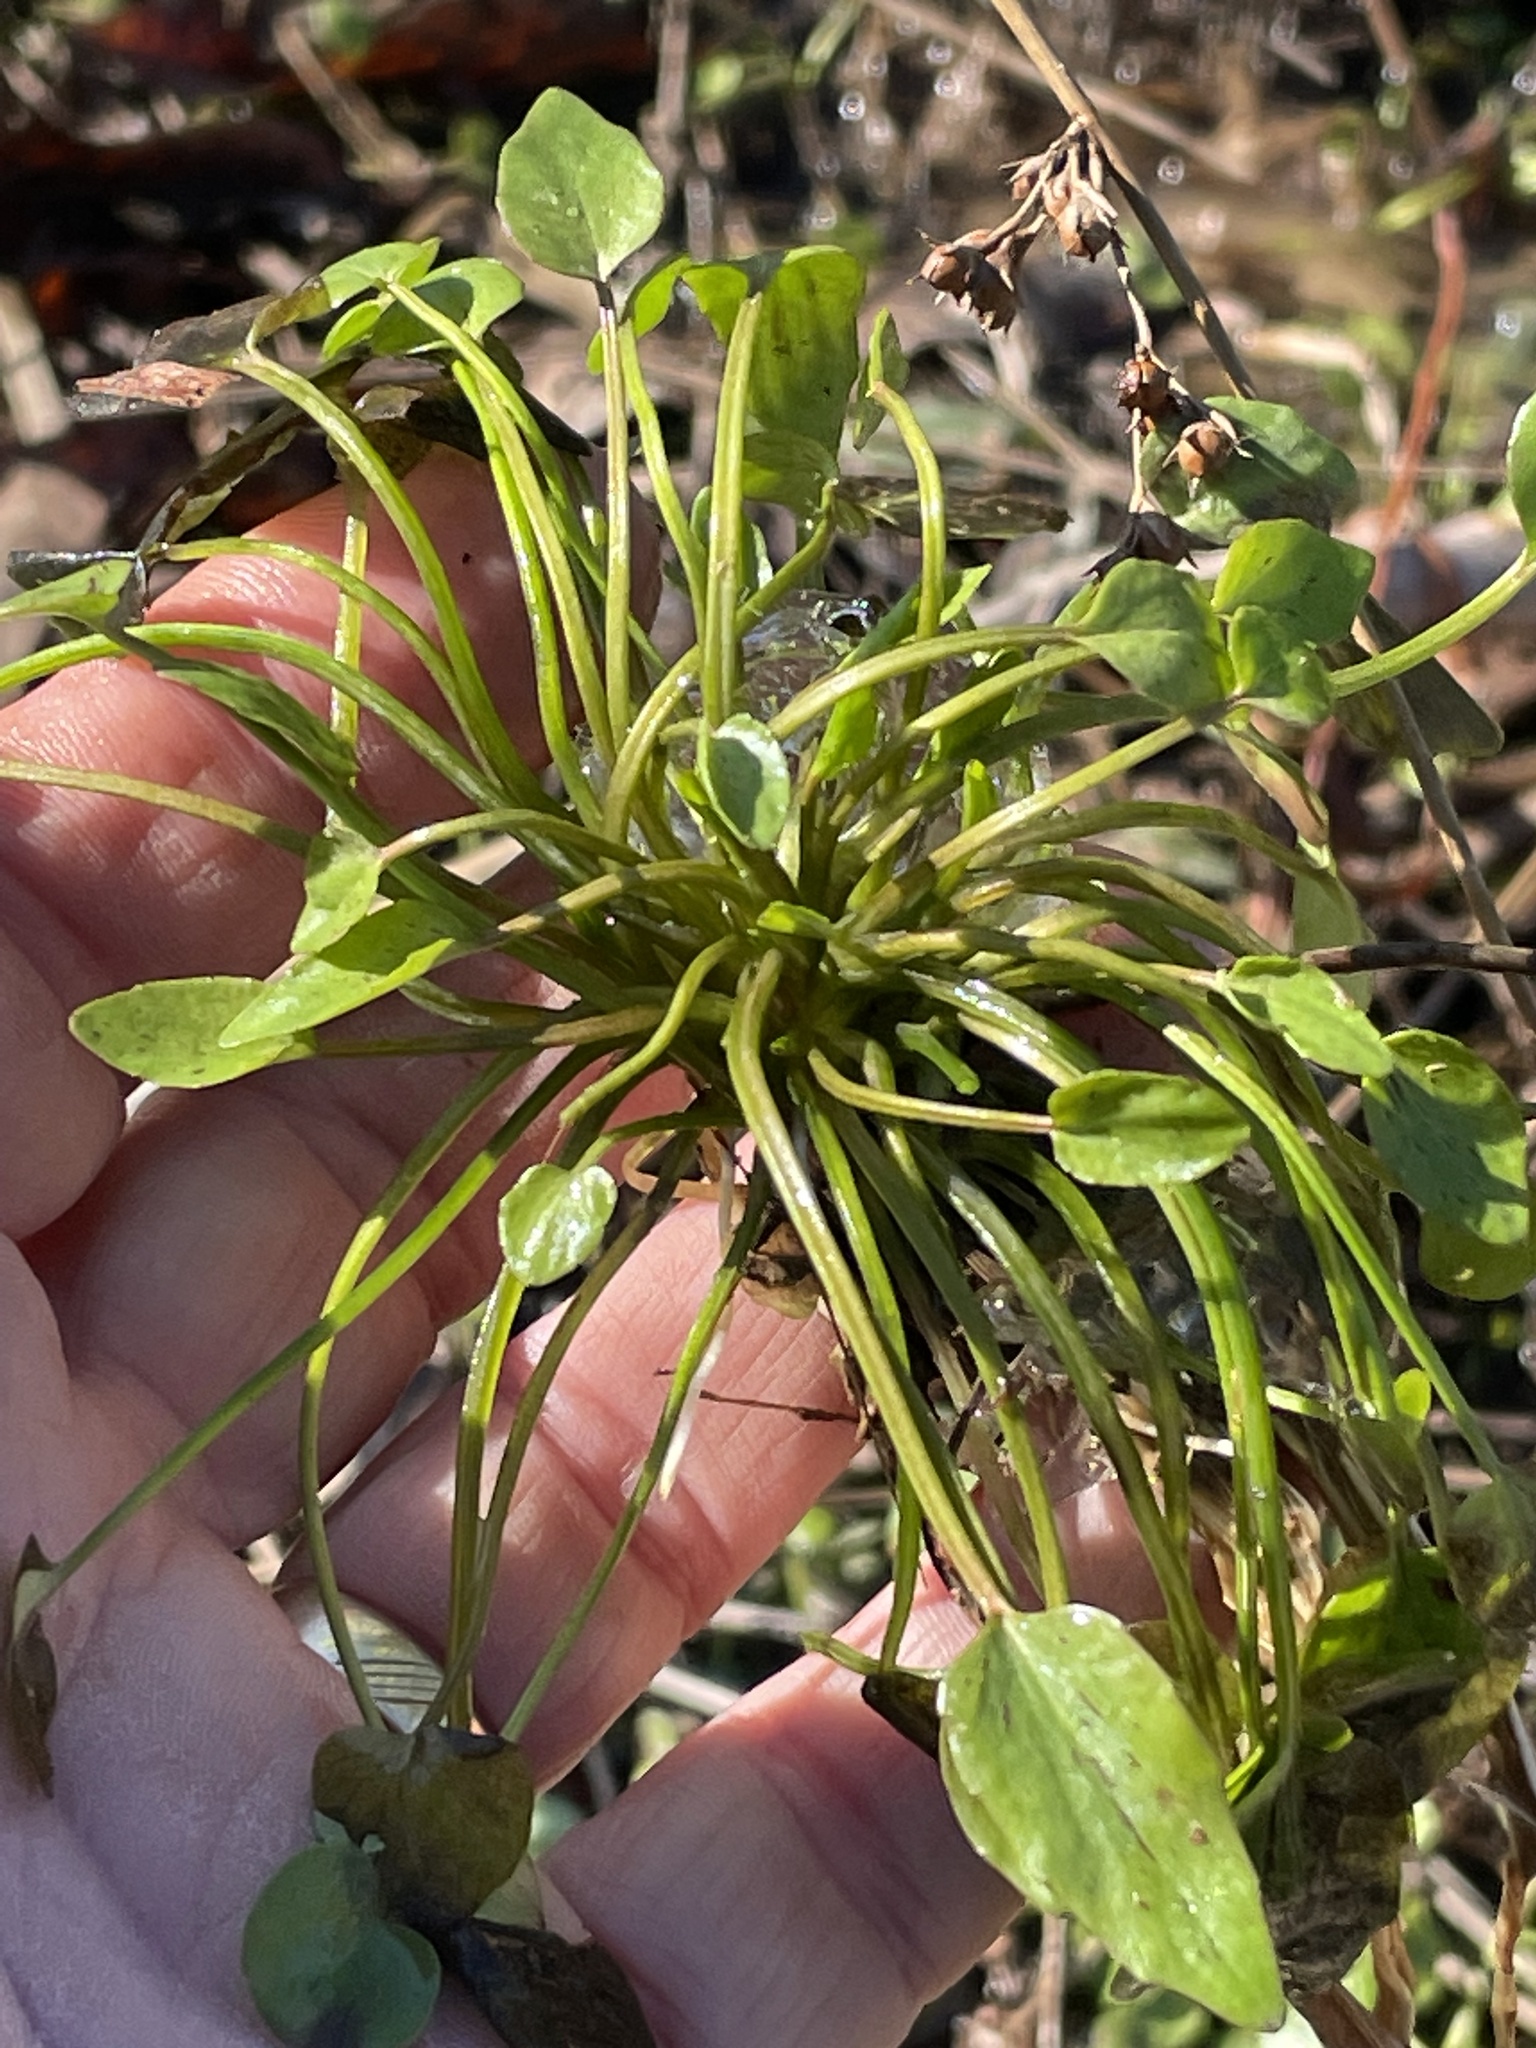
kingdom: Plantae
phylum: Tracheophyta
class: Magnoliopsida
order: Ranunculales
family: Ranunculaceae
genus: Ranunculus
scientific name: Ranunculus pusillus
